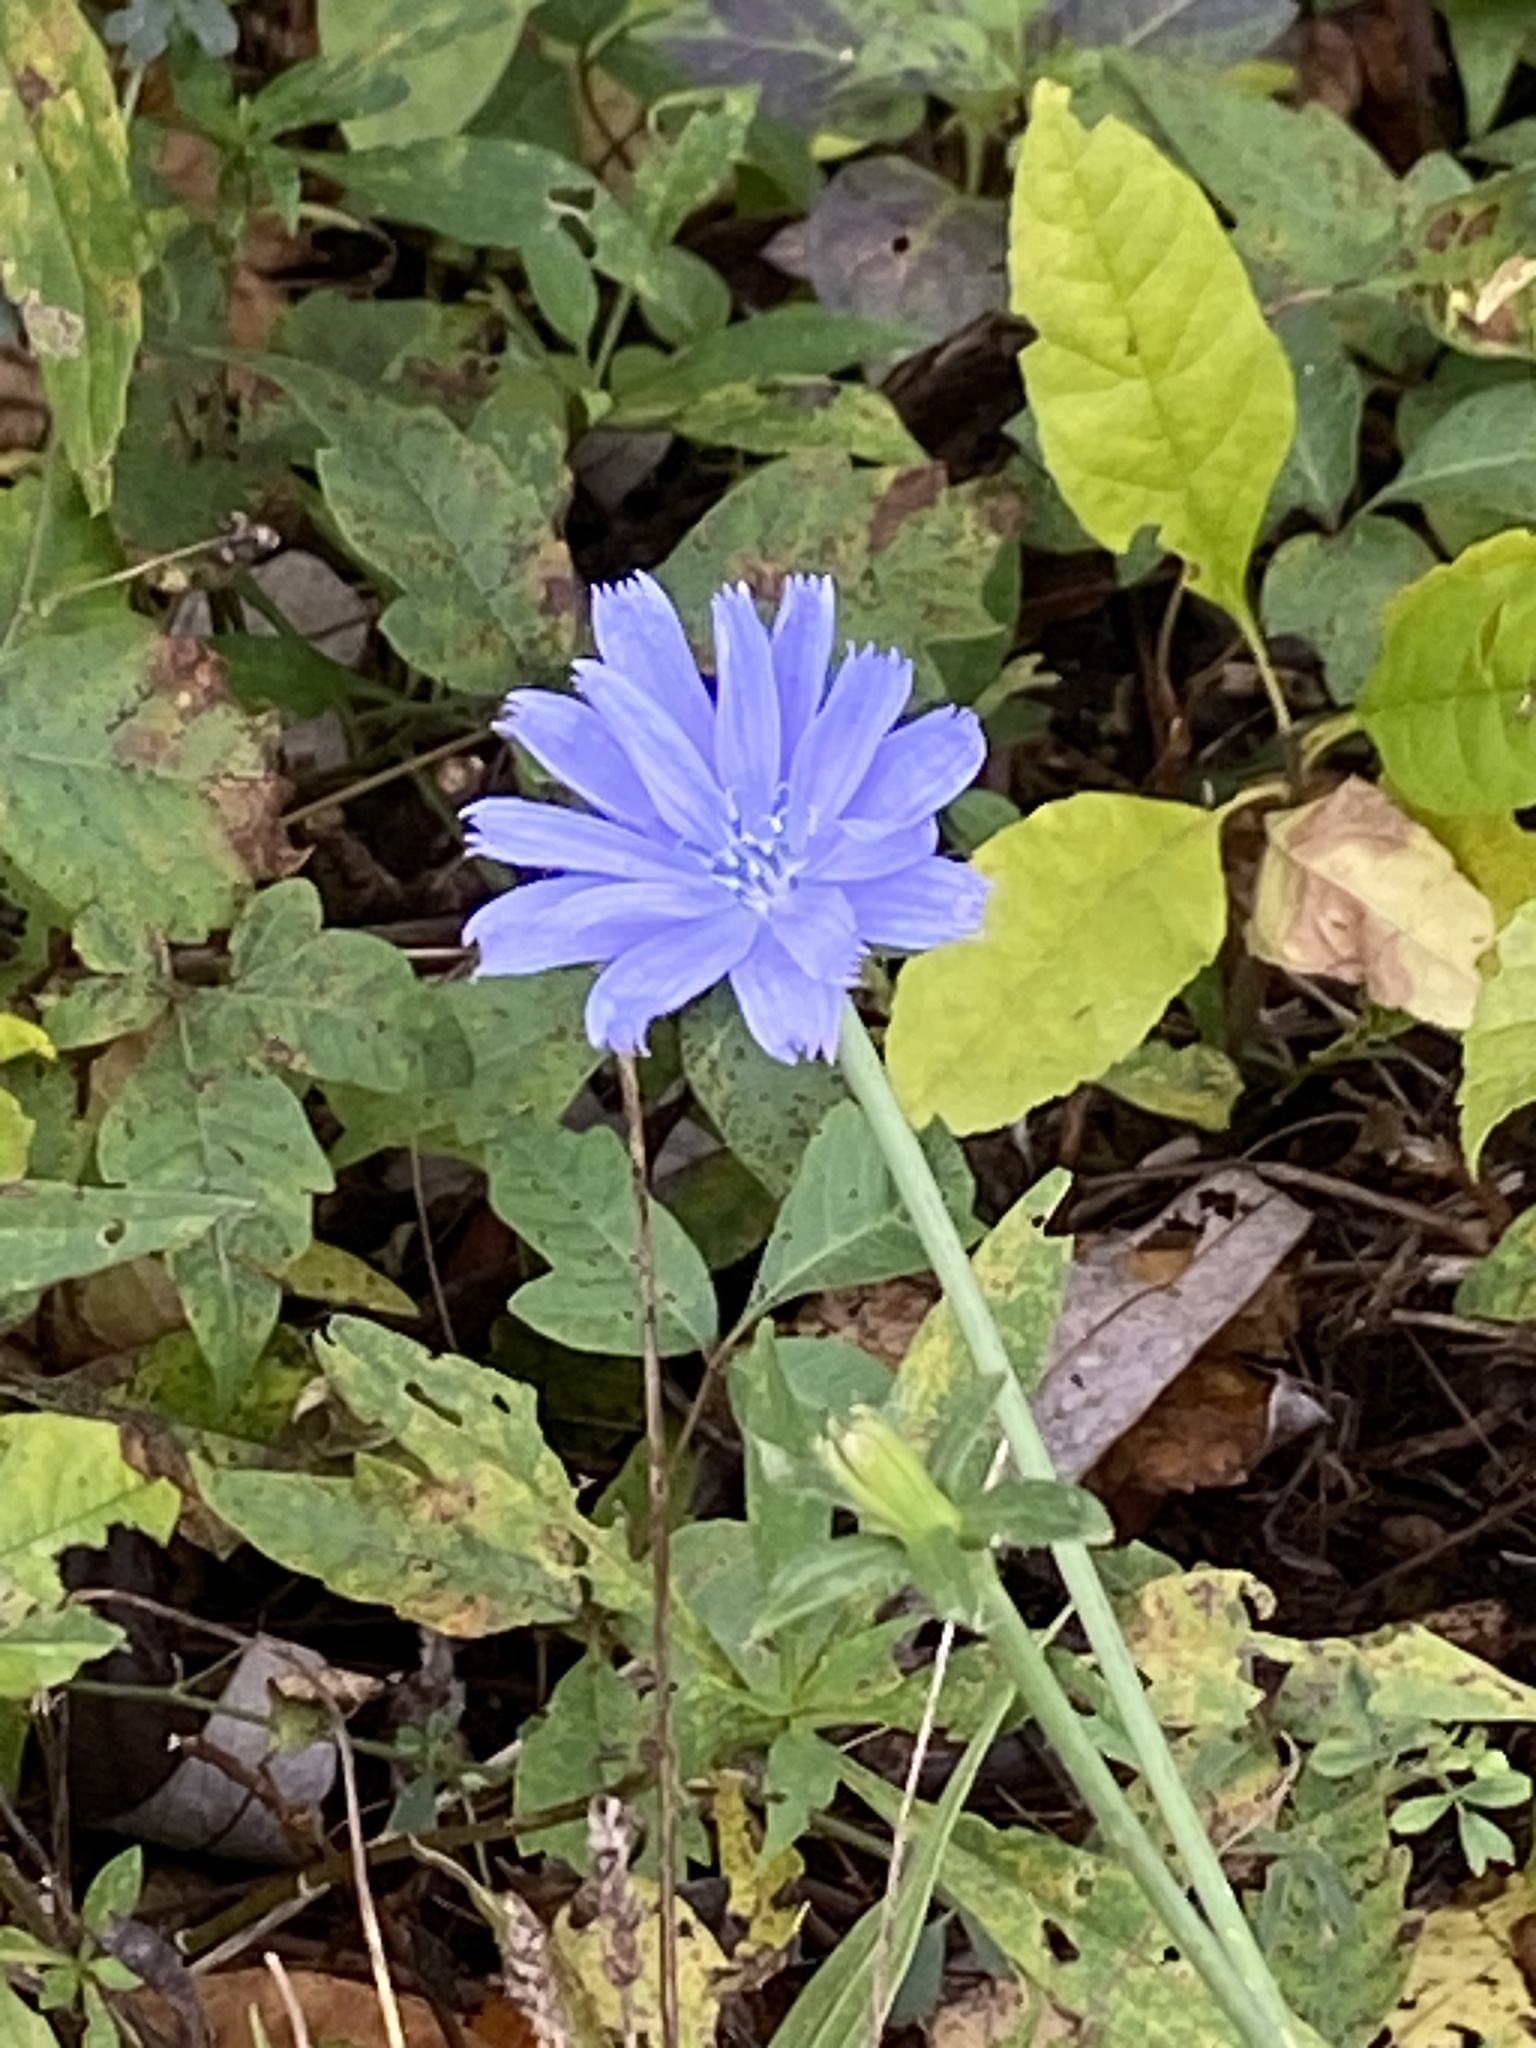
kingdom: Plantae
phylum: Tracheophyta
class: Magnoliopsida
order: Asterales
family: Asteraceae
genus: Cichorium
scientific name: Cichorium intybus
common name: Chicory
